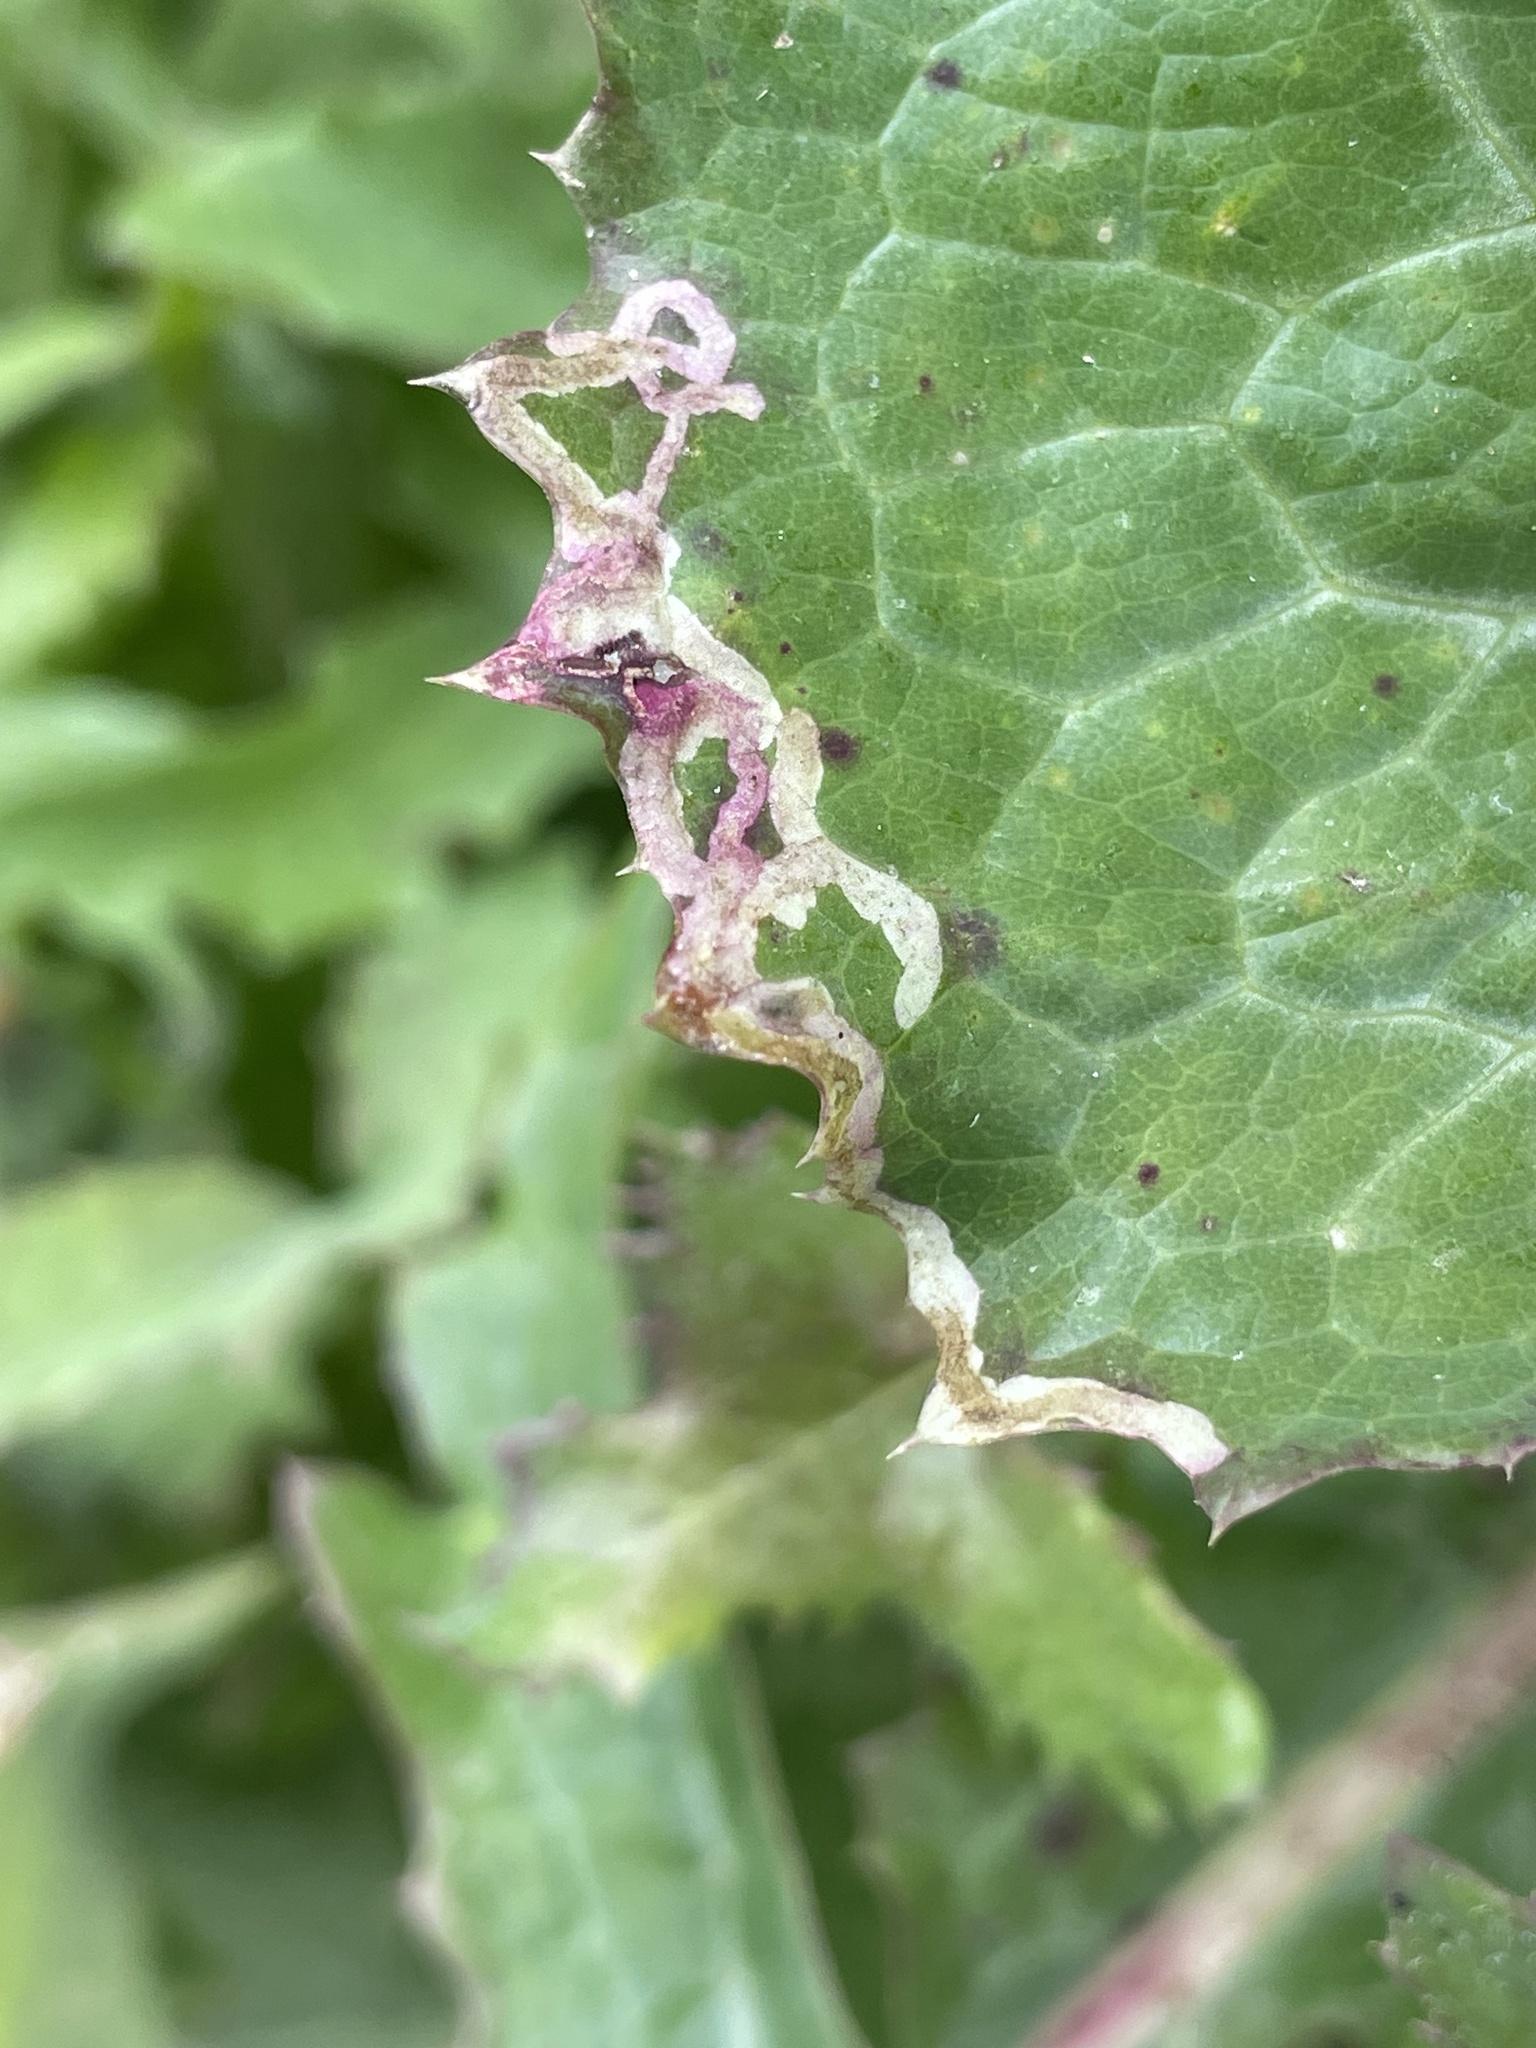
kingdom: Animalia
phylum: Arthropoda
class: Insecta
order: Diptera
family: Agromyzidae
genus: Phytomyza
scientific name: Phytomyza syngenesiae
